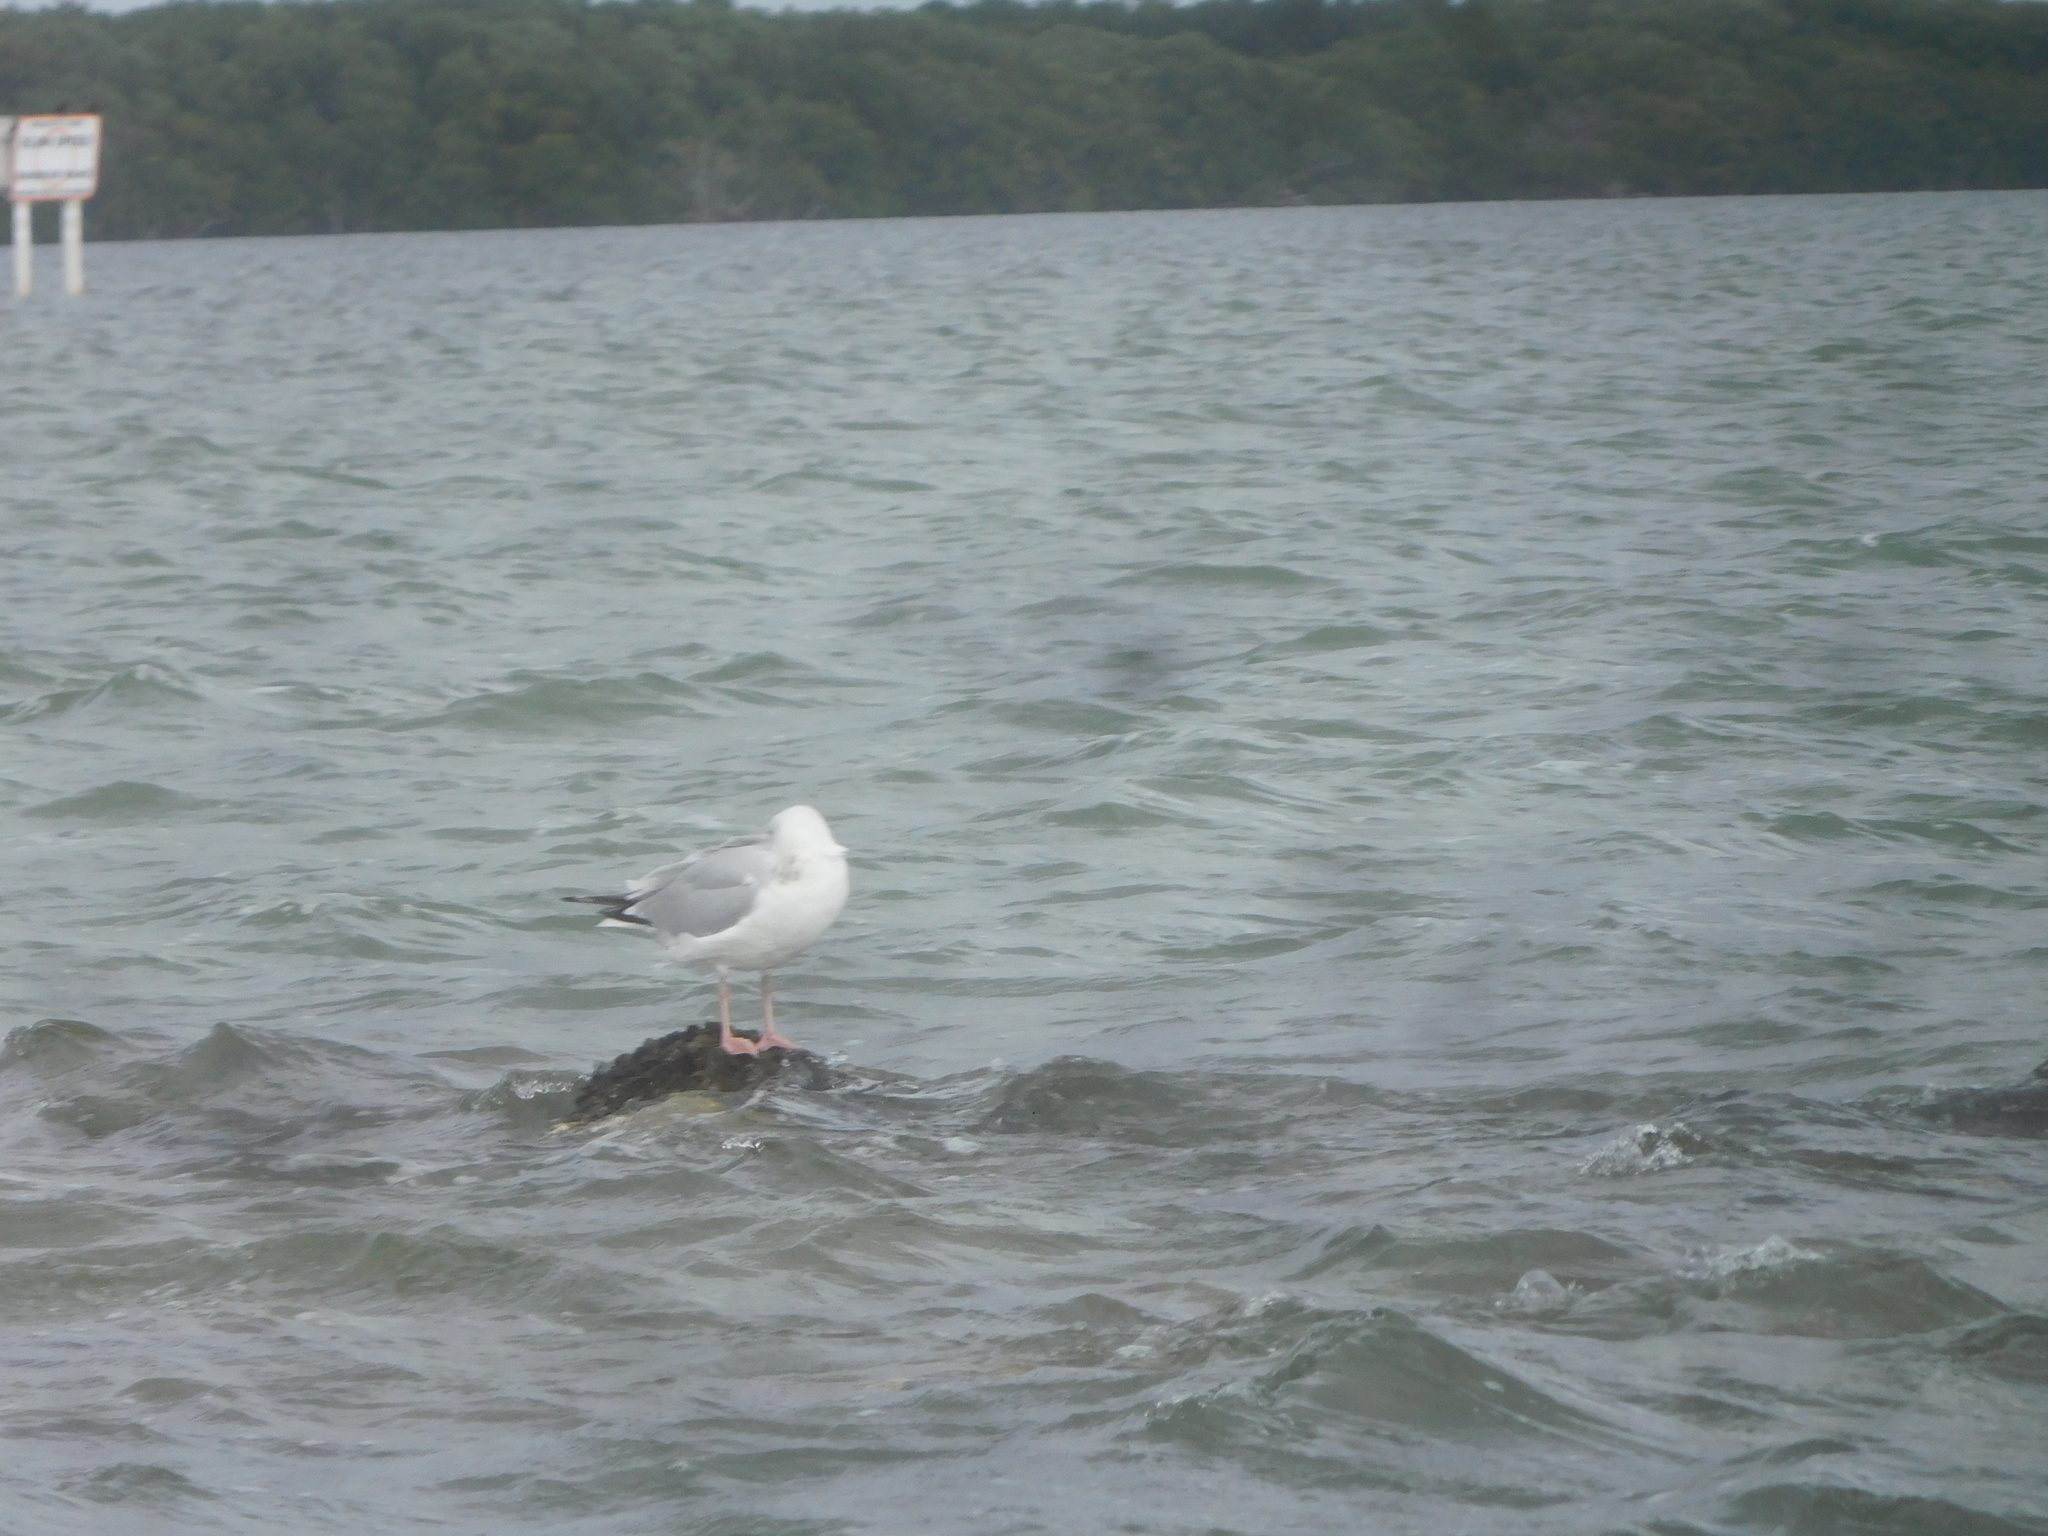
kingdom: Animalia
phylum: Chordata
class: Aves
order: Charadriiformes
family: Laridae
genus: Larus
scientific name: Larus argentatus
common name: Herring gull
